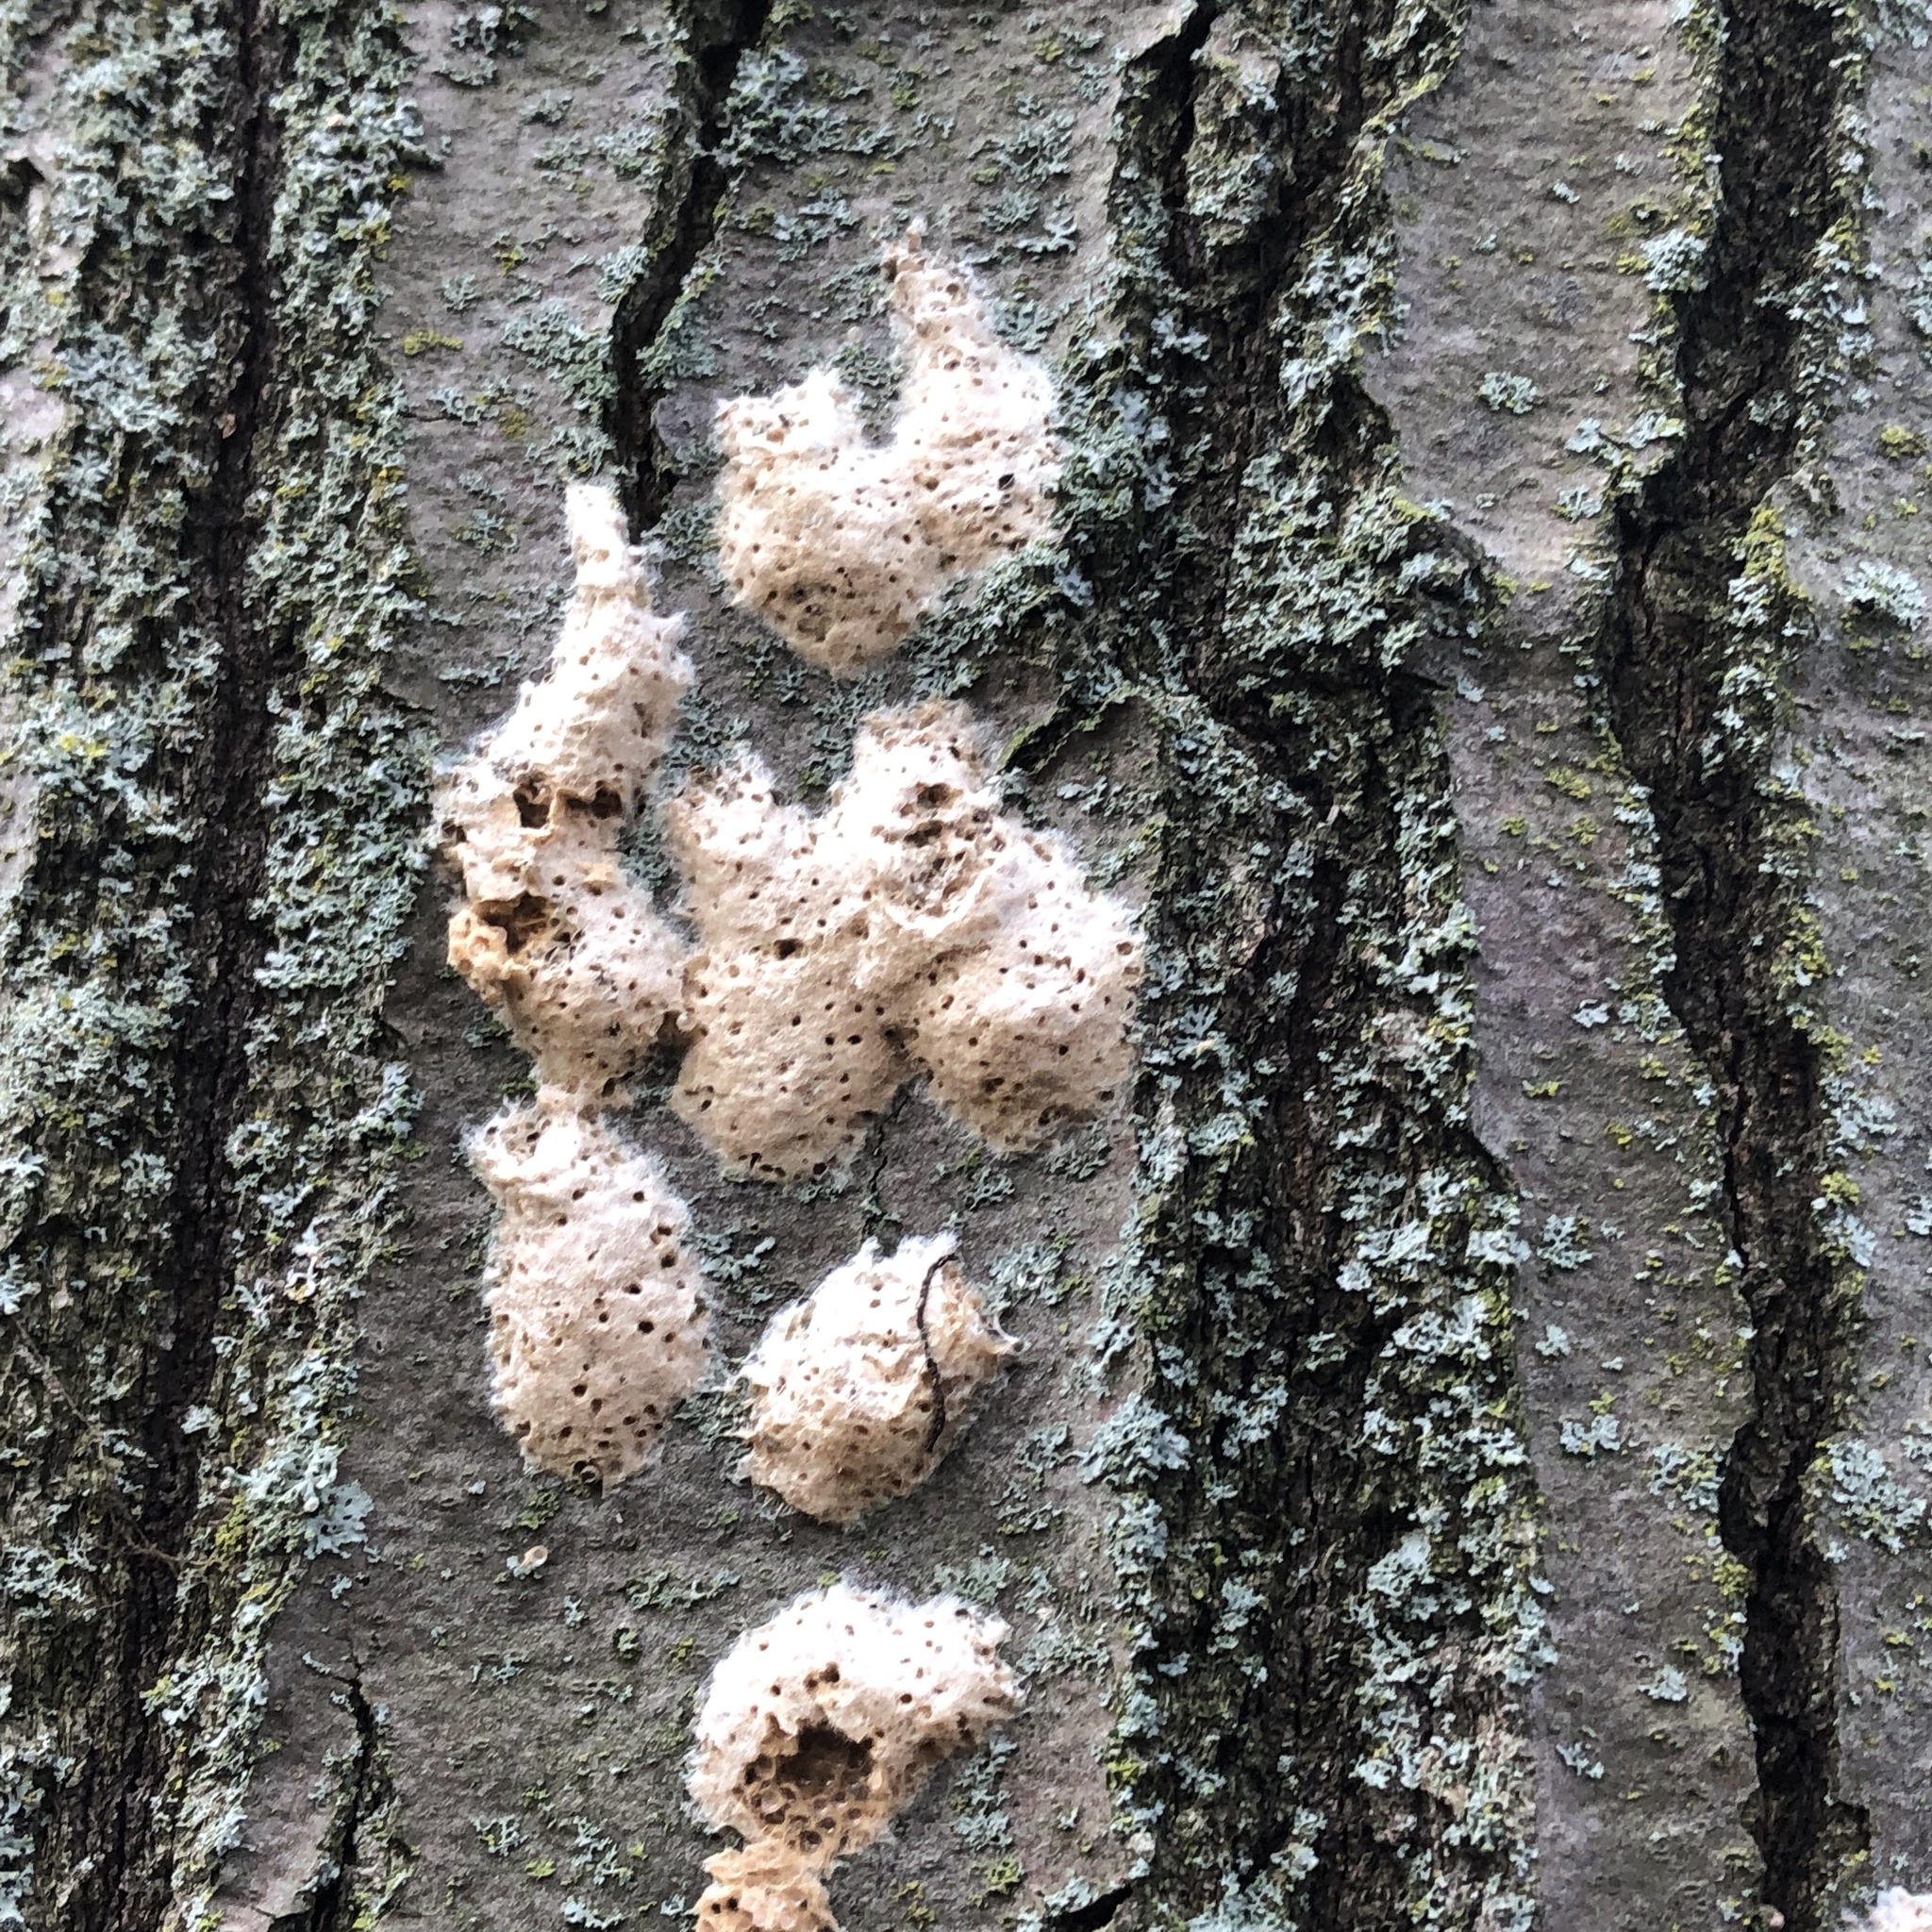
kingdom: Animalia
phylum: Arthropoda
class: Insecta
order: Lepidoptera
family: Erebidae
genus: Lymantria
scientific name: Lymantria dispar
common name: Gypsy moth
